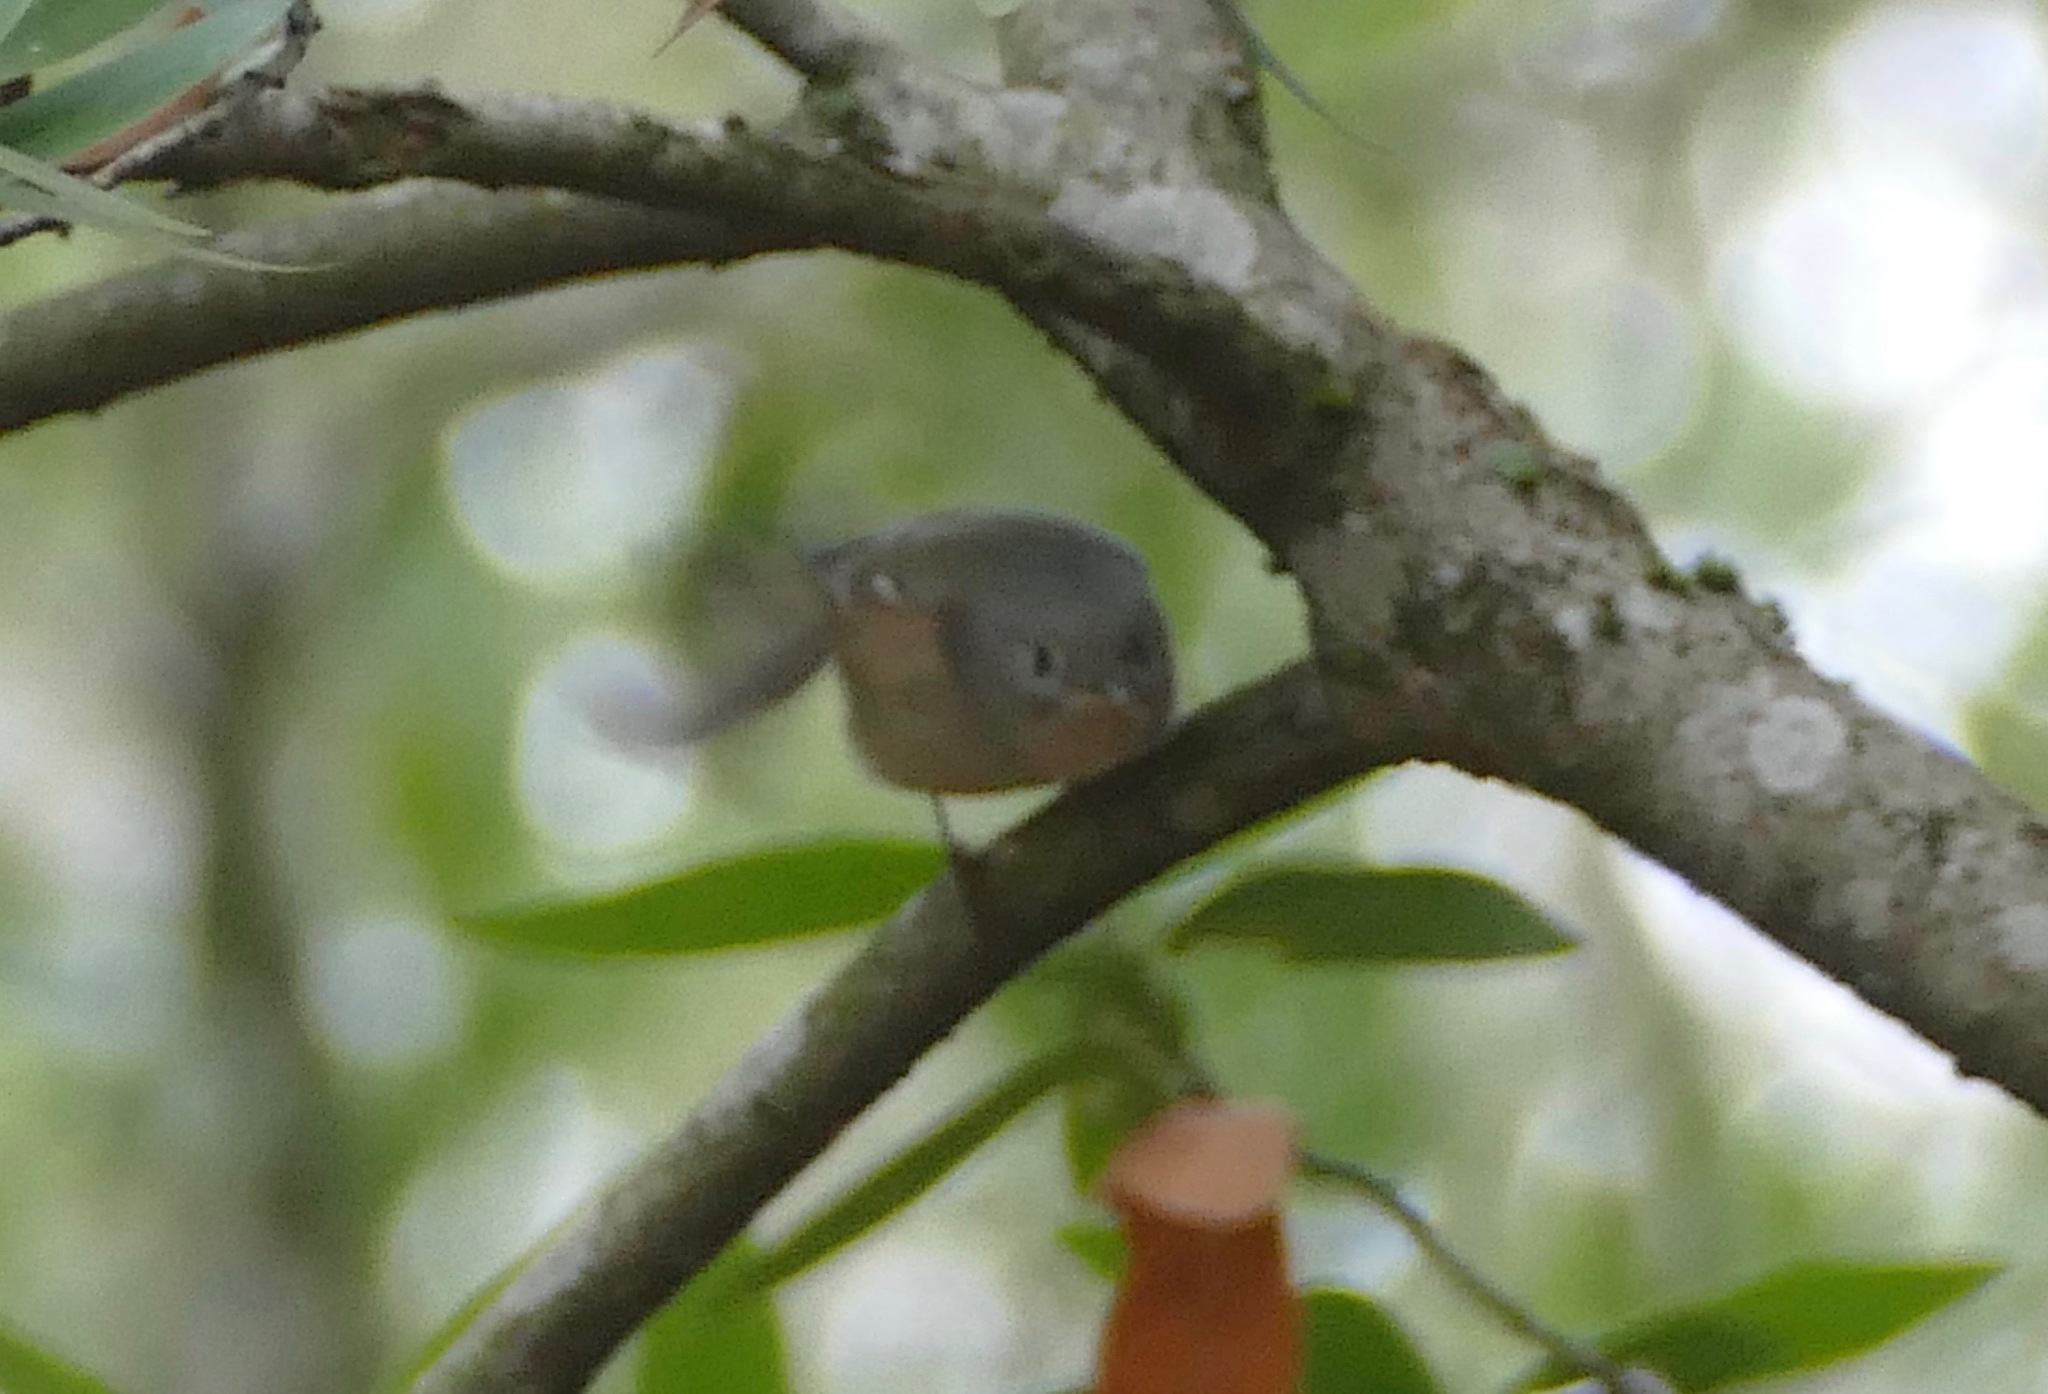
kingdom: Animalia
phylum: Chordata
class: Aves
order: Passeriformes
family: Regulidae
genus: Regulus
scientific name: Regulus calendula
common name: Ruby-crowned kinglet
